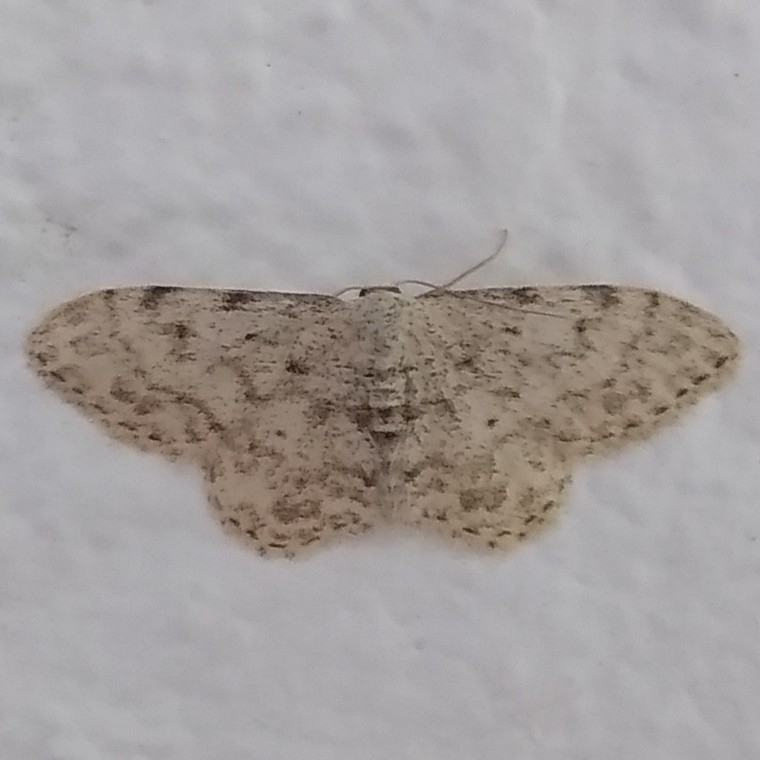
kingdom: Animalia
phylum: Arthropoda
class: Insecta
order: Lepidoptera
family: Geometridae
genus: Idaea
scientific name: Idaea camparia
